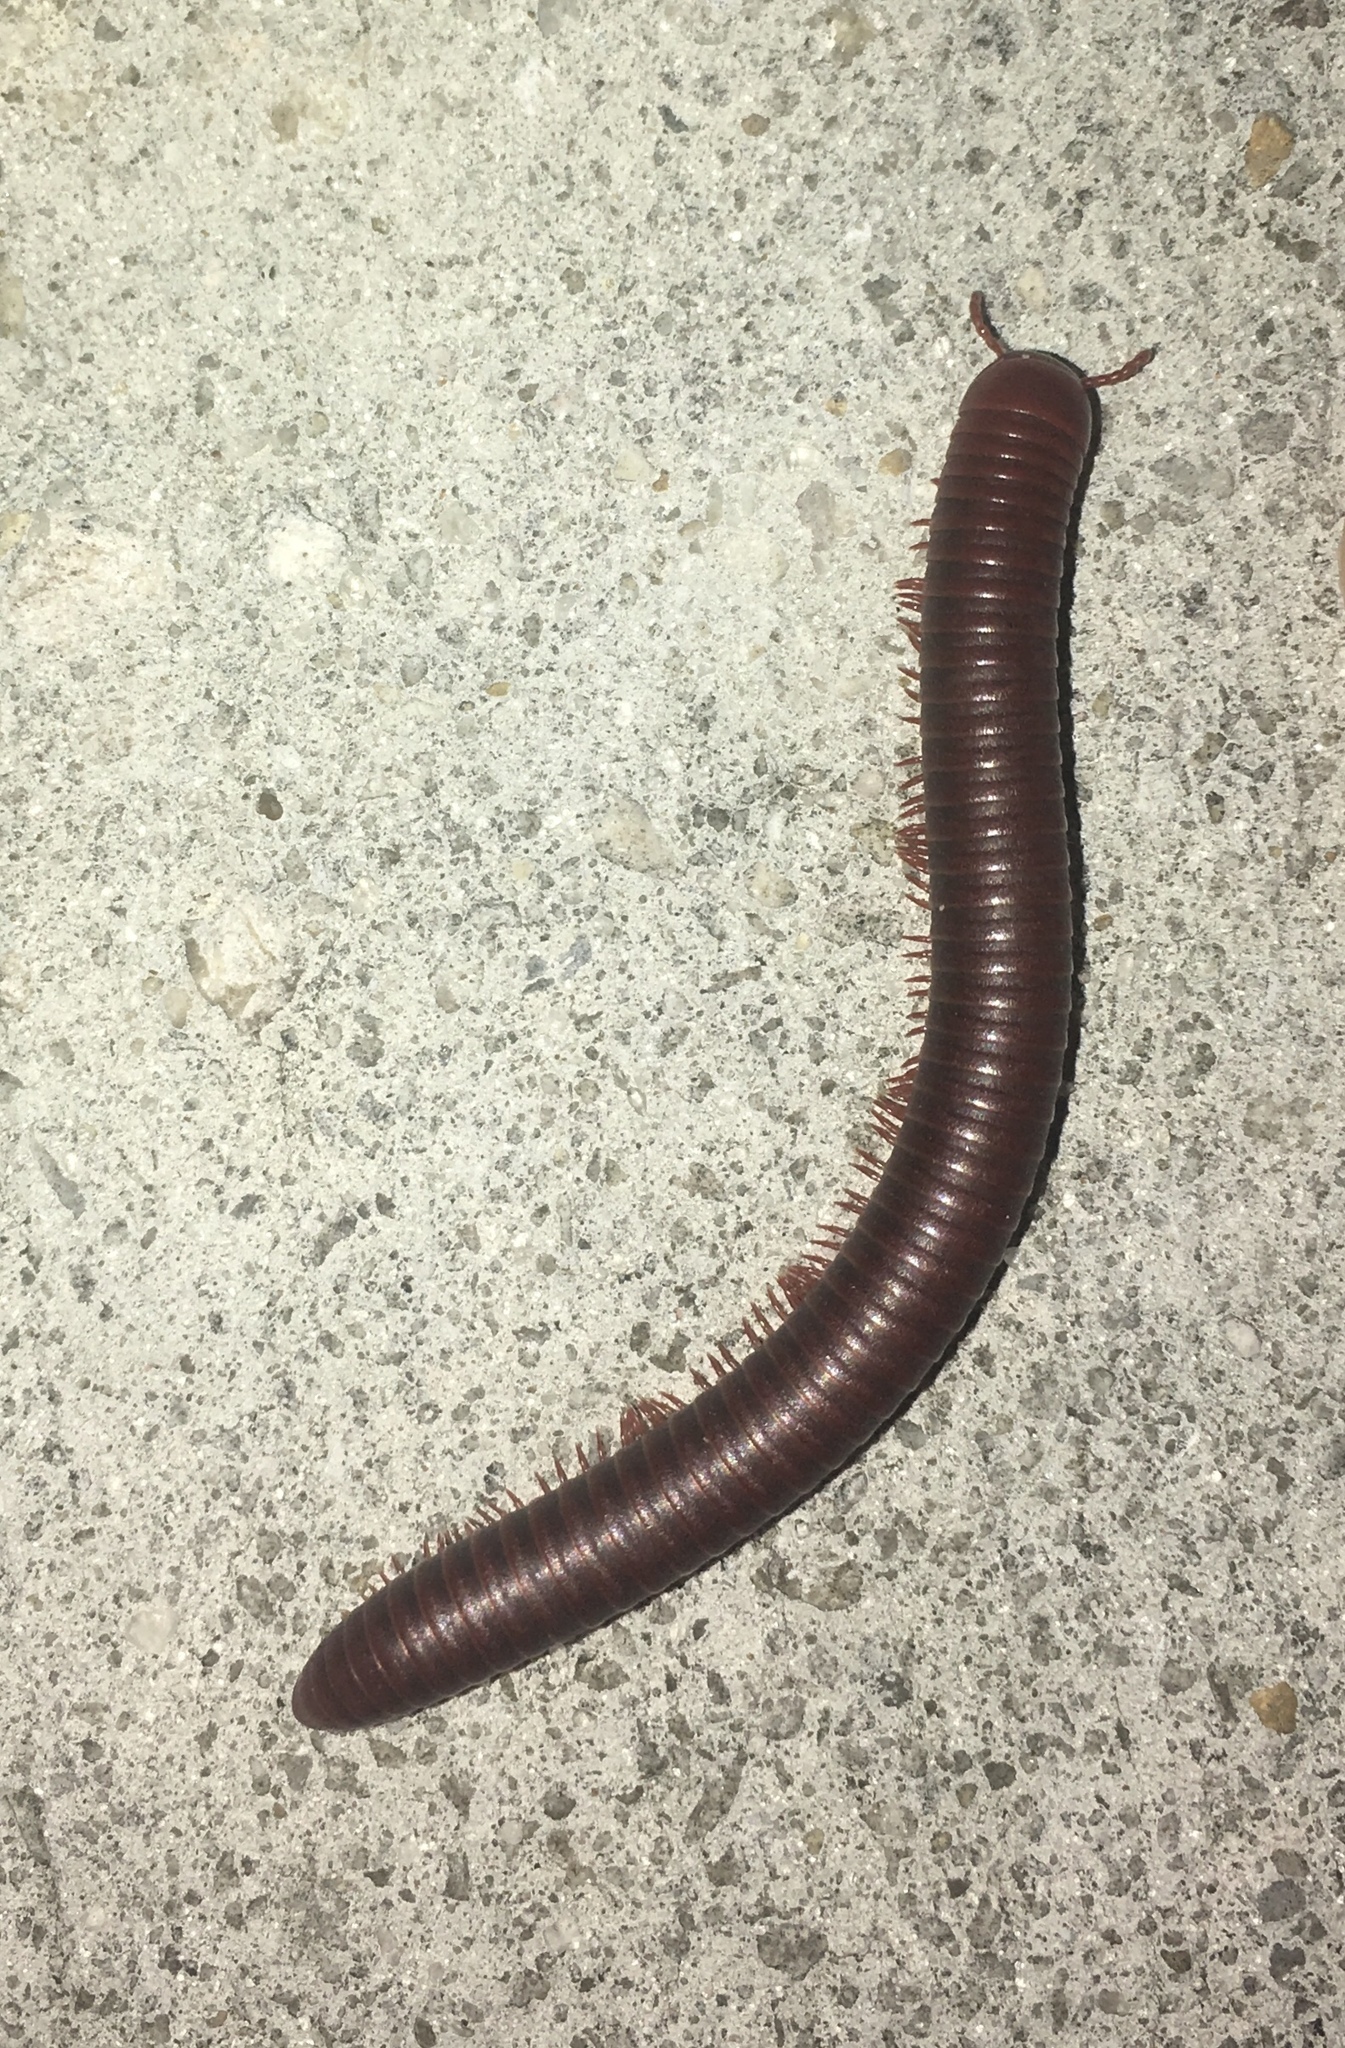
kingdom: Animalia
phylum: Arthropoda
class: Diplopoda
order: Spirobolida
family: Pachybolidae
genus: Trigoniulus
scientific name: Trigoniulus corallinus
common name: Millipede
